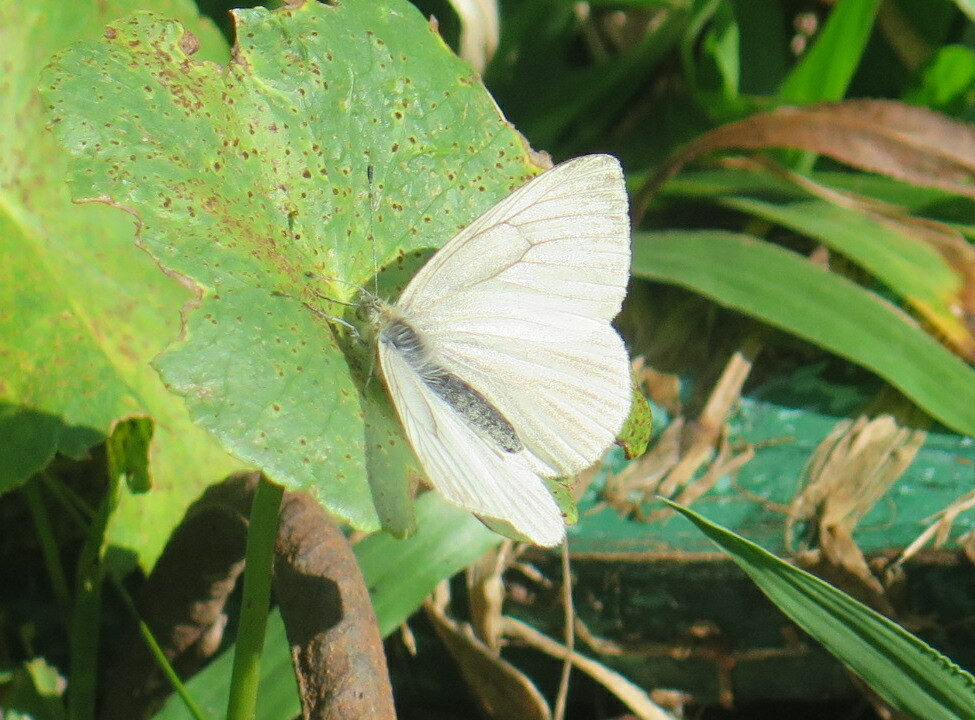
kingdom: Animalia
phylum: Arthropoda
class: Insecta
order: Lepidoptera
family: Pieridae
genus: Theochila
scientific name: Theochila maenacte
